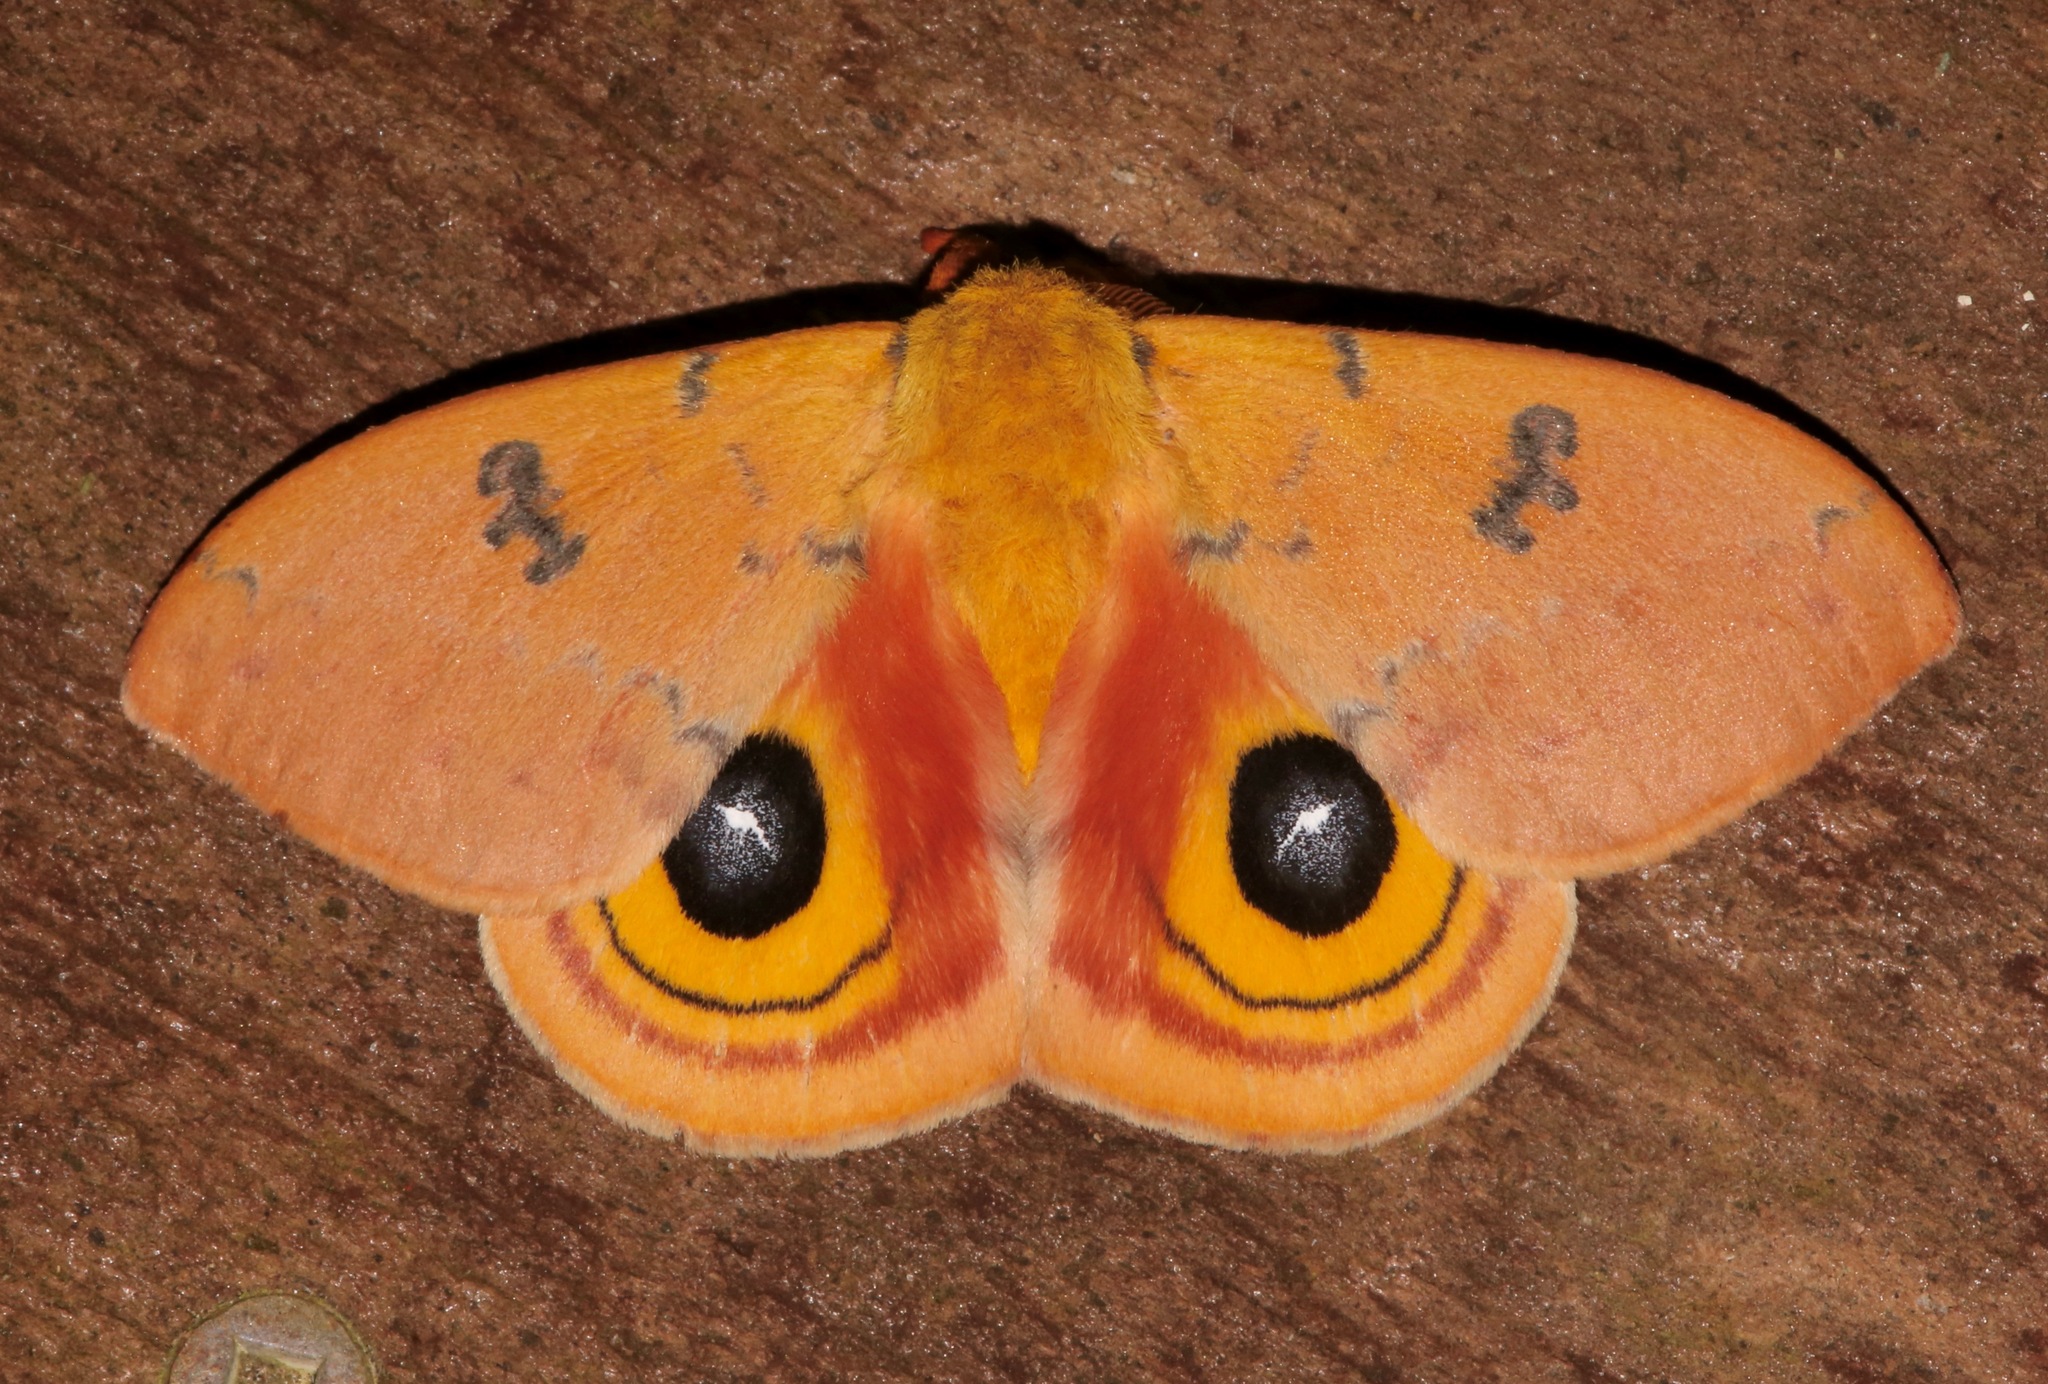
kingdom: Animalia
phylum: Arthropoda
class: Insecta
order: Lepidoptera
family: Saturniidae
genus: Automeris
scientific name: Automeris io
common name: Io moth
